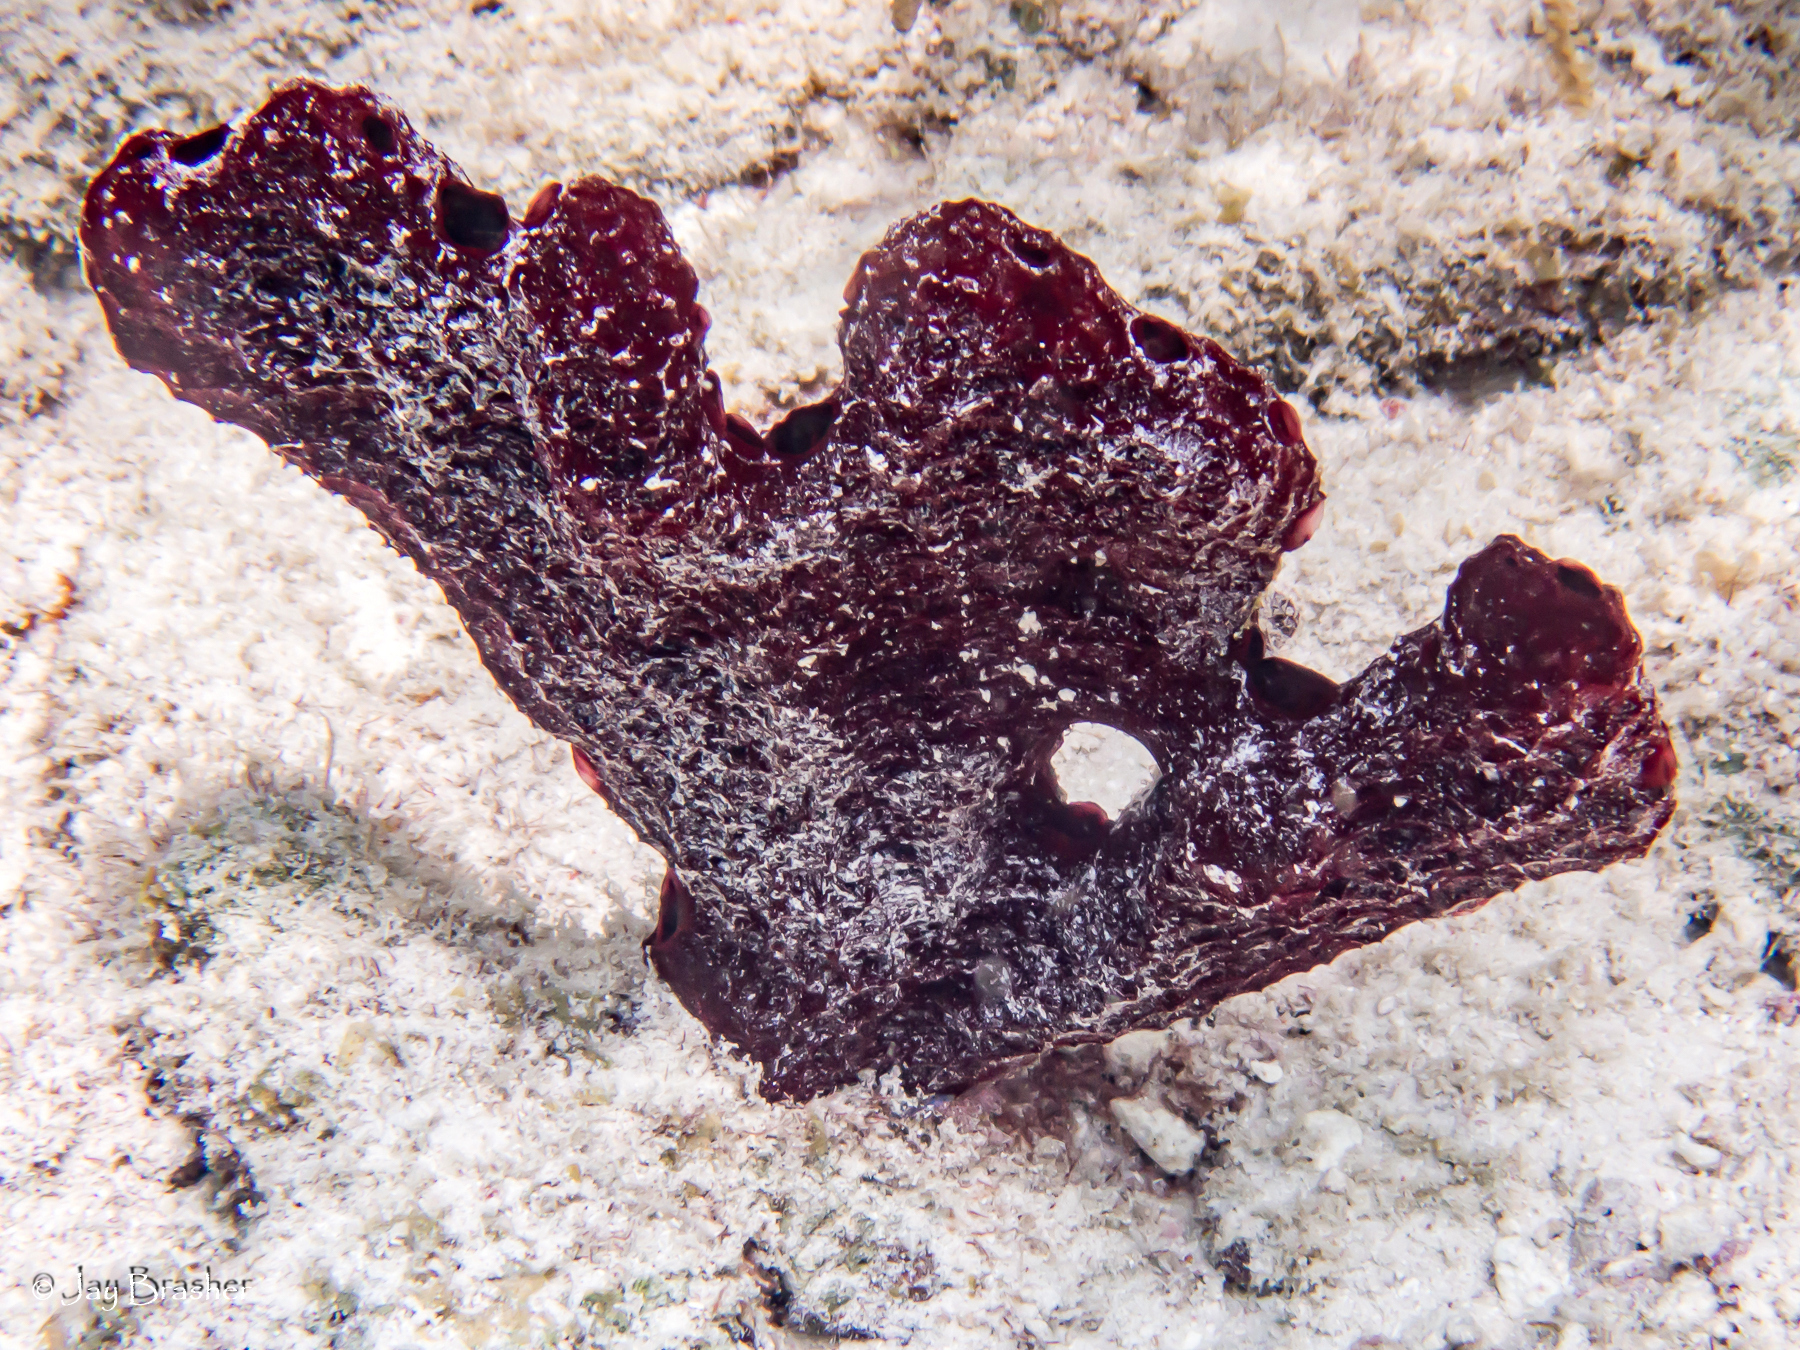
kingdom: Animalia
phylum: Porifera
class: Demospongiae
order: Poecilosclerida
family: Microcionidae
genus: Pandaros
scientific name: Pandaros acanthifolium
